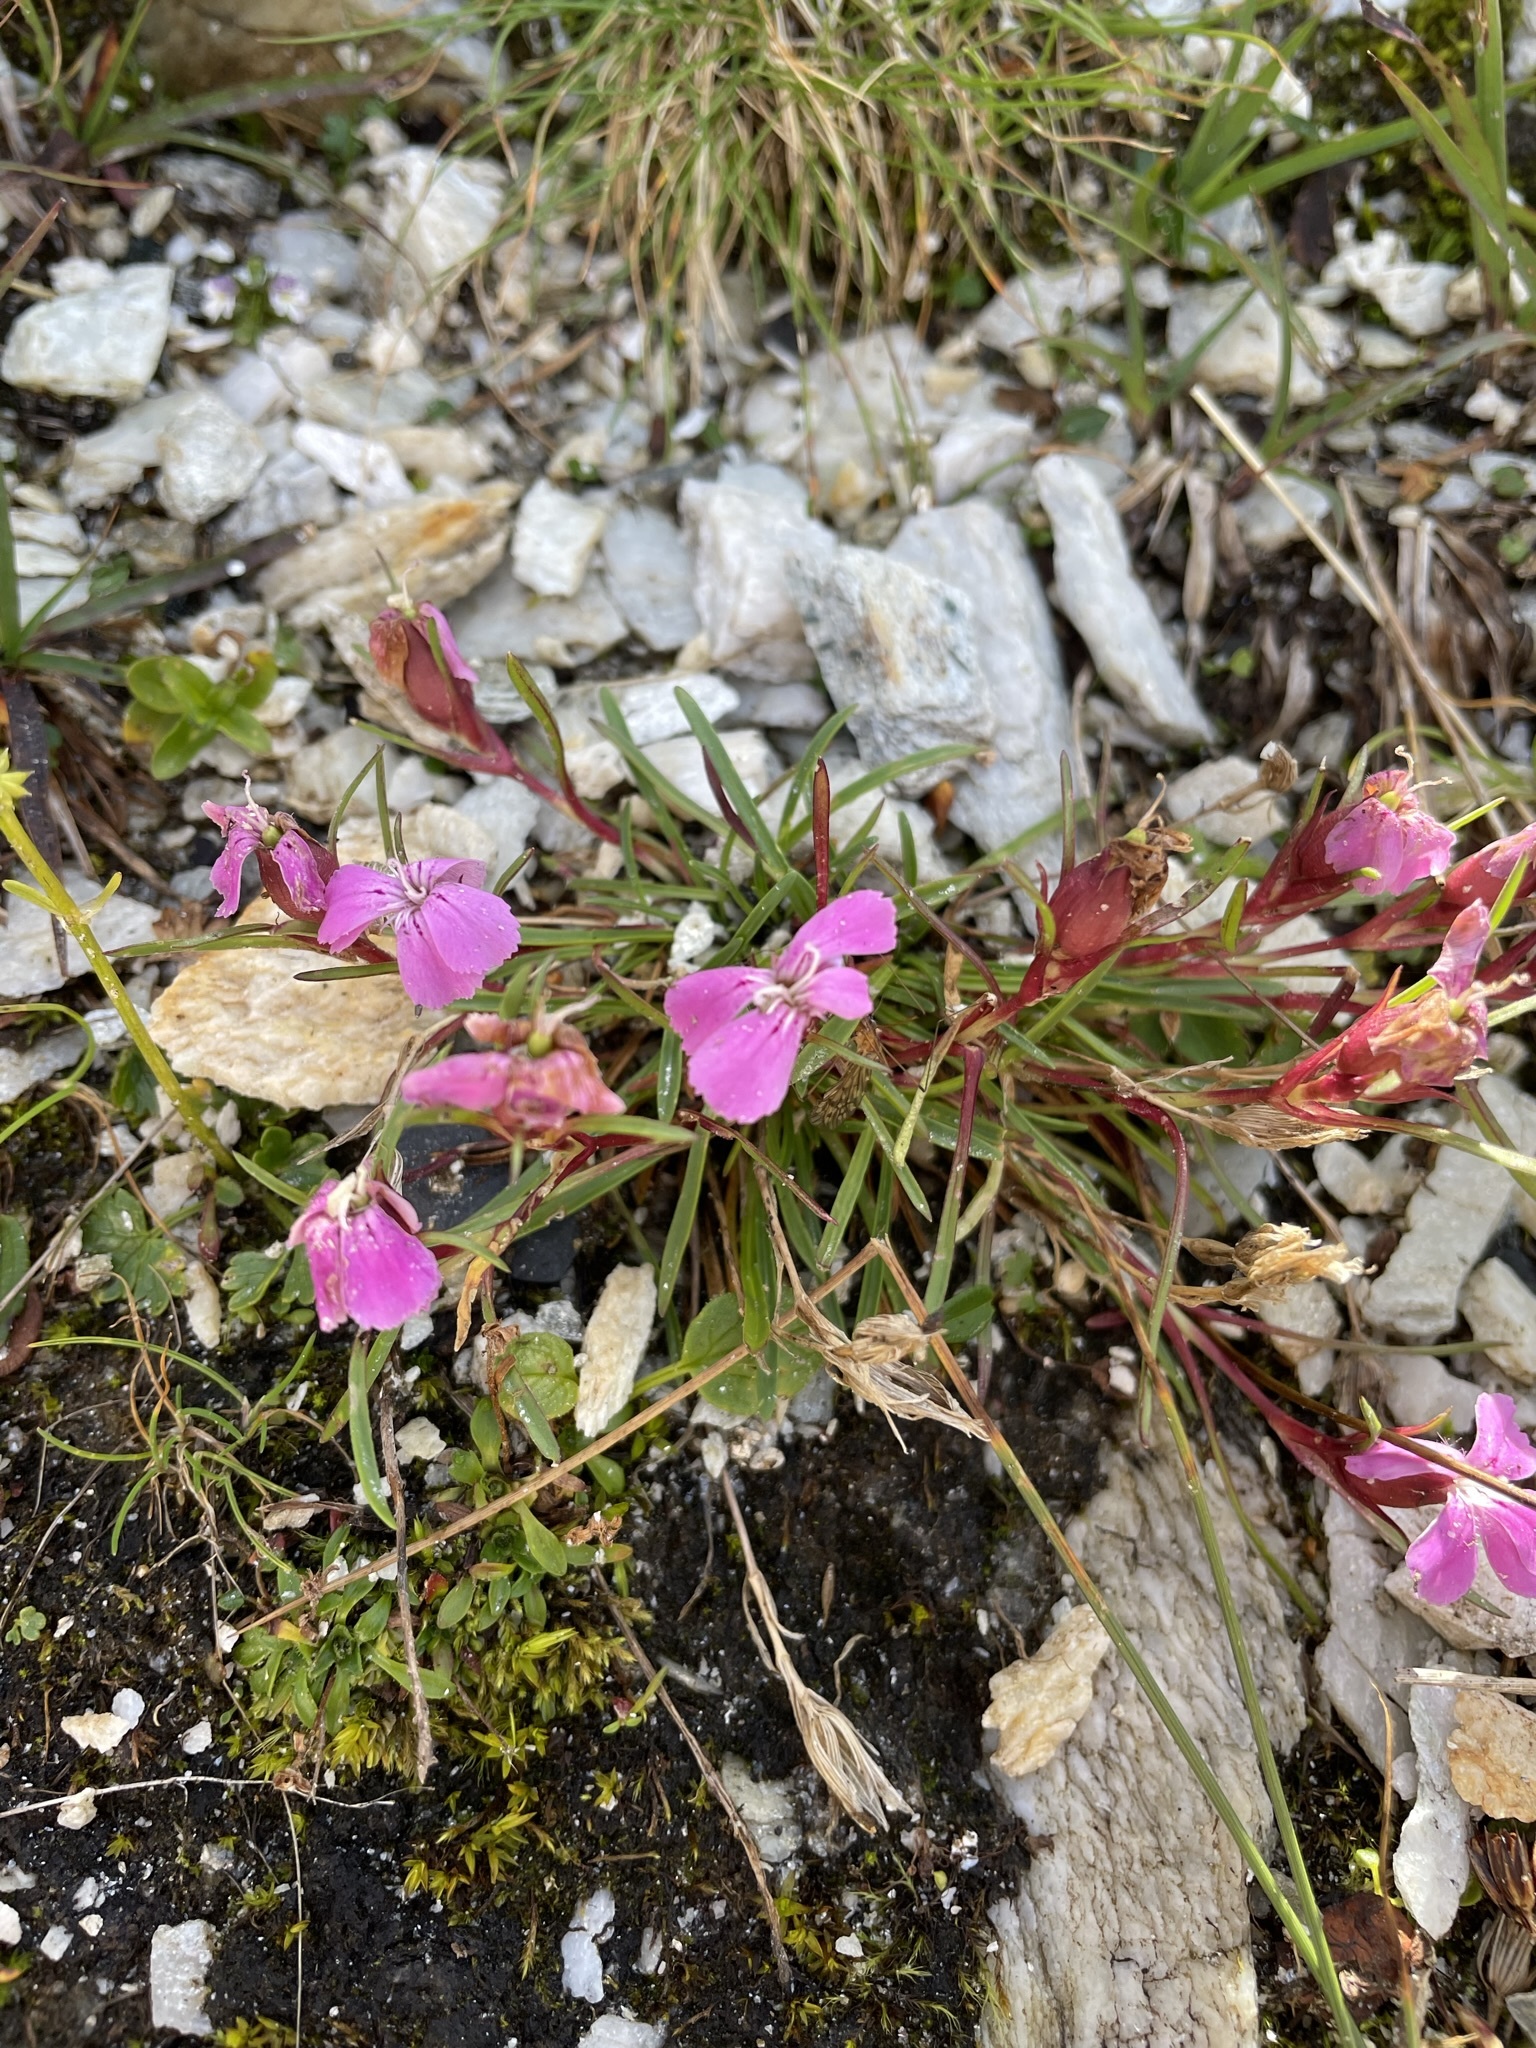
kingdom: Plantae
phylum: Tracheophyta
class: Magnoliopsida
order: Caryophyllales
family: Caryophyllaceae
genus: Dianthus
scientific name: Dianthus glacialis
